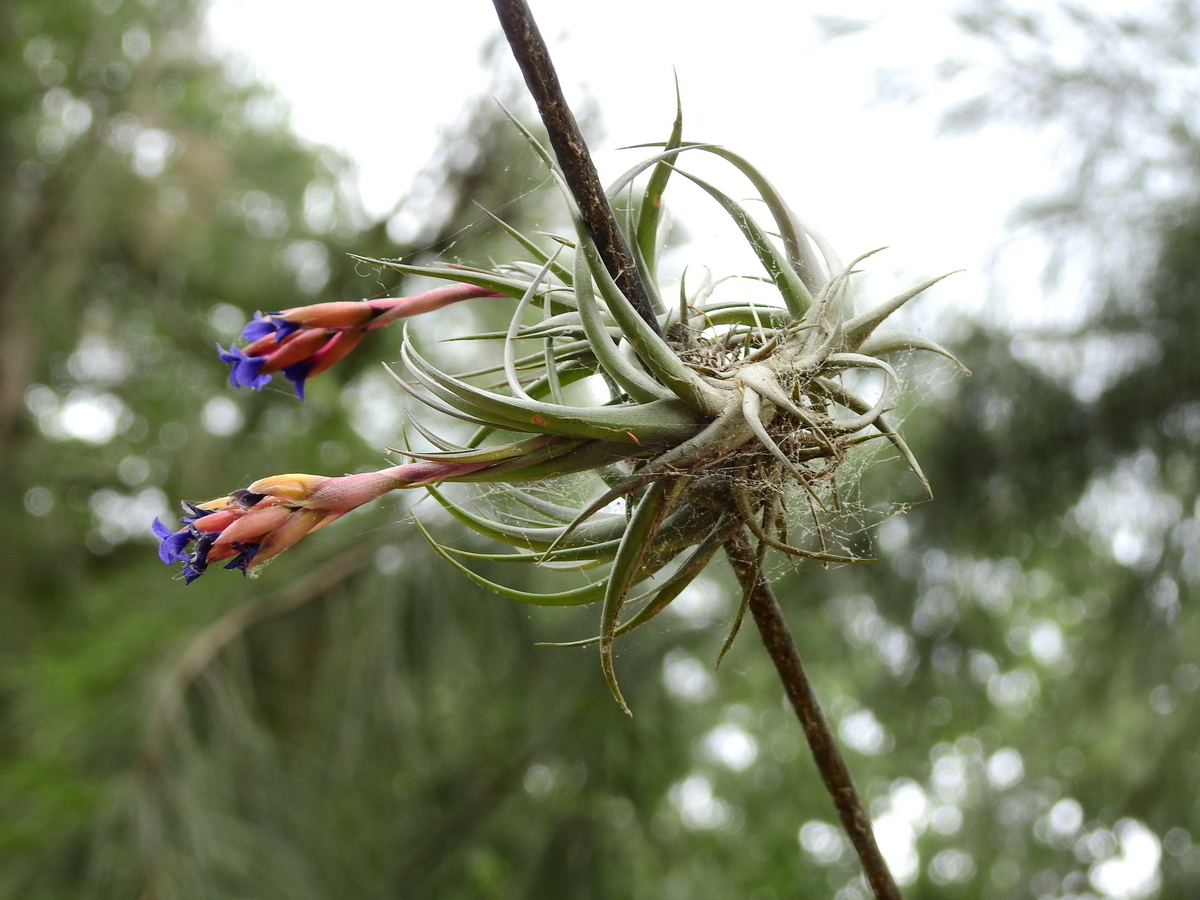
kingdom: Plantae
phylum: Tracheophyta
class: Liliopsida
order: Poales
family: Bromeliaceae
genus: Tillandsia
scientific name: Tillandsia aeranthos
